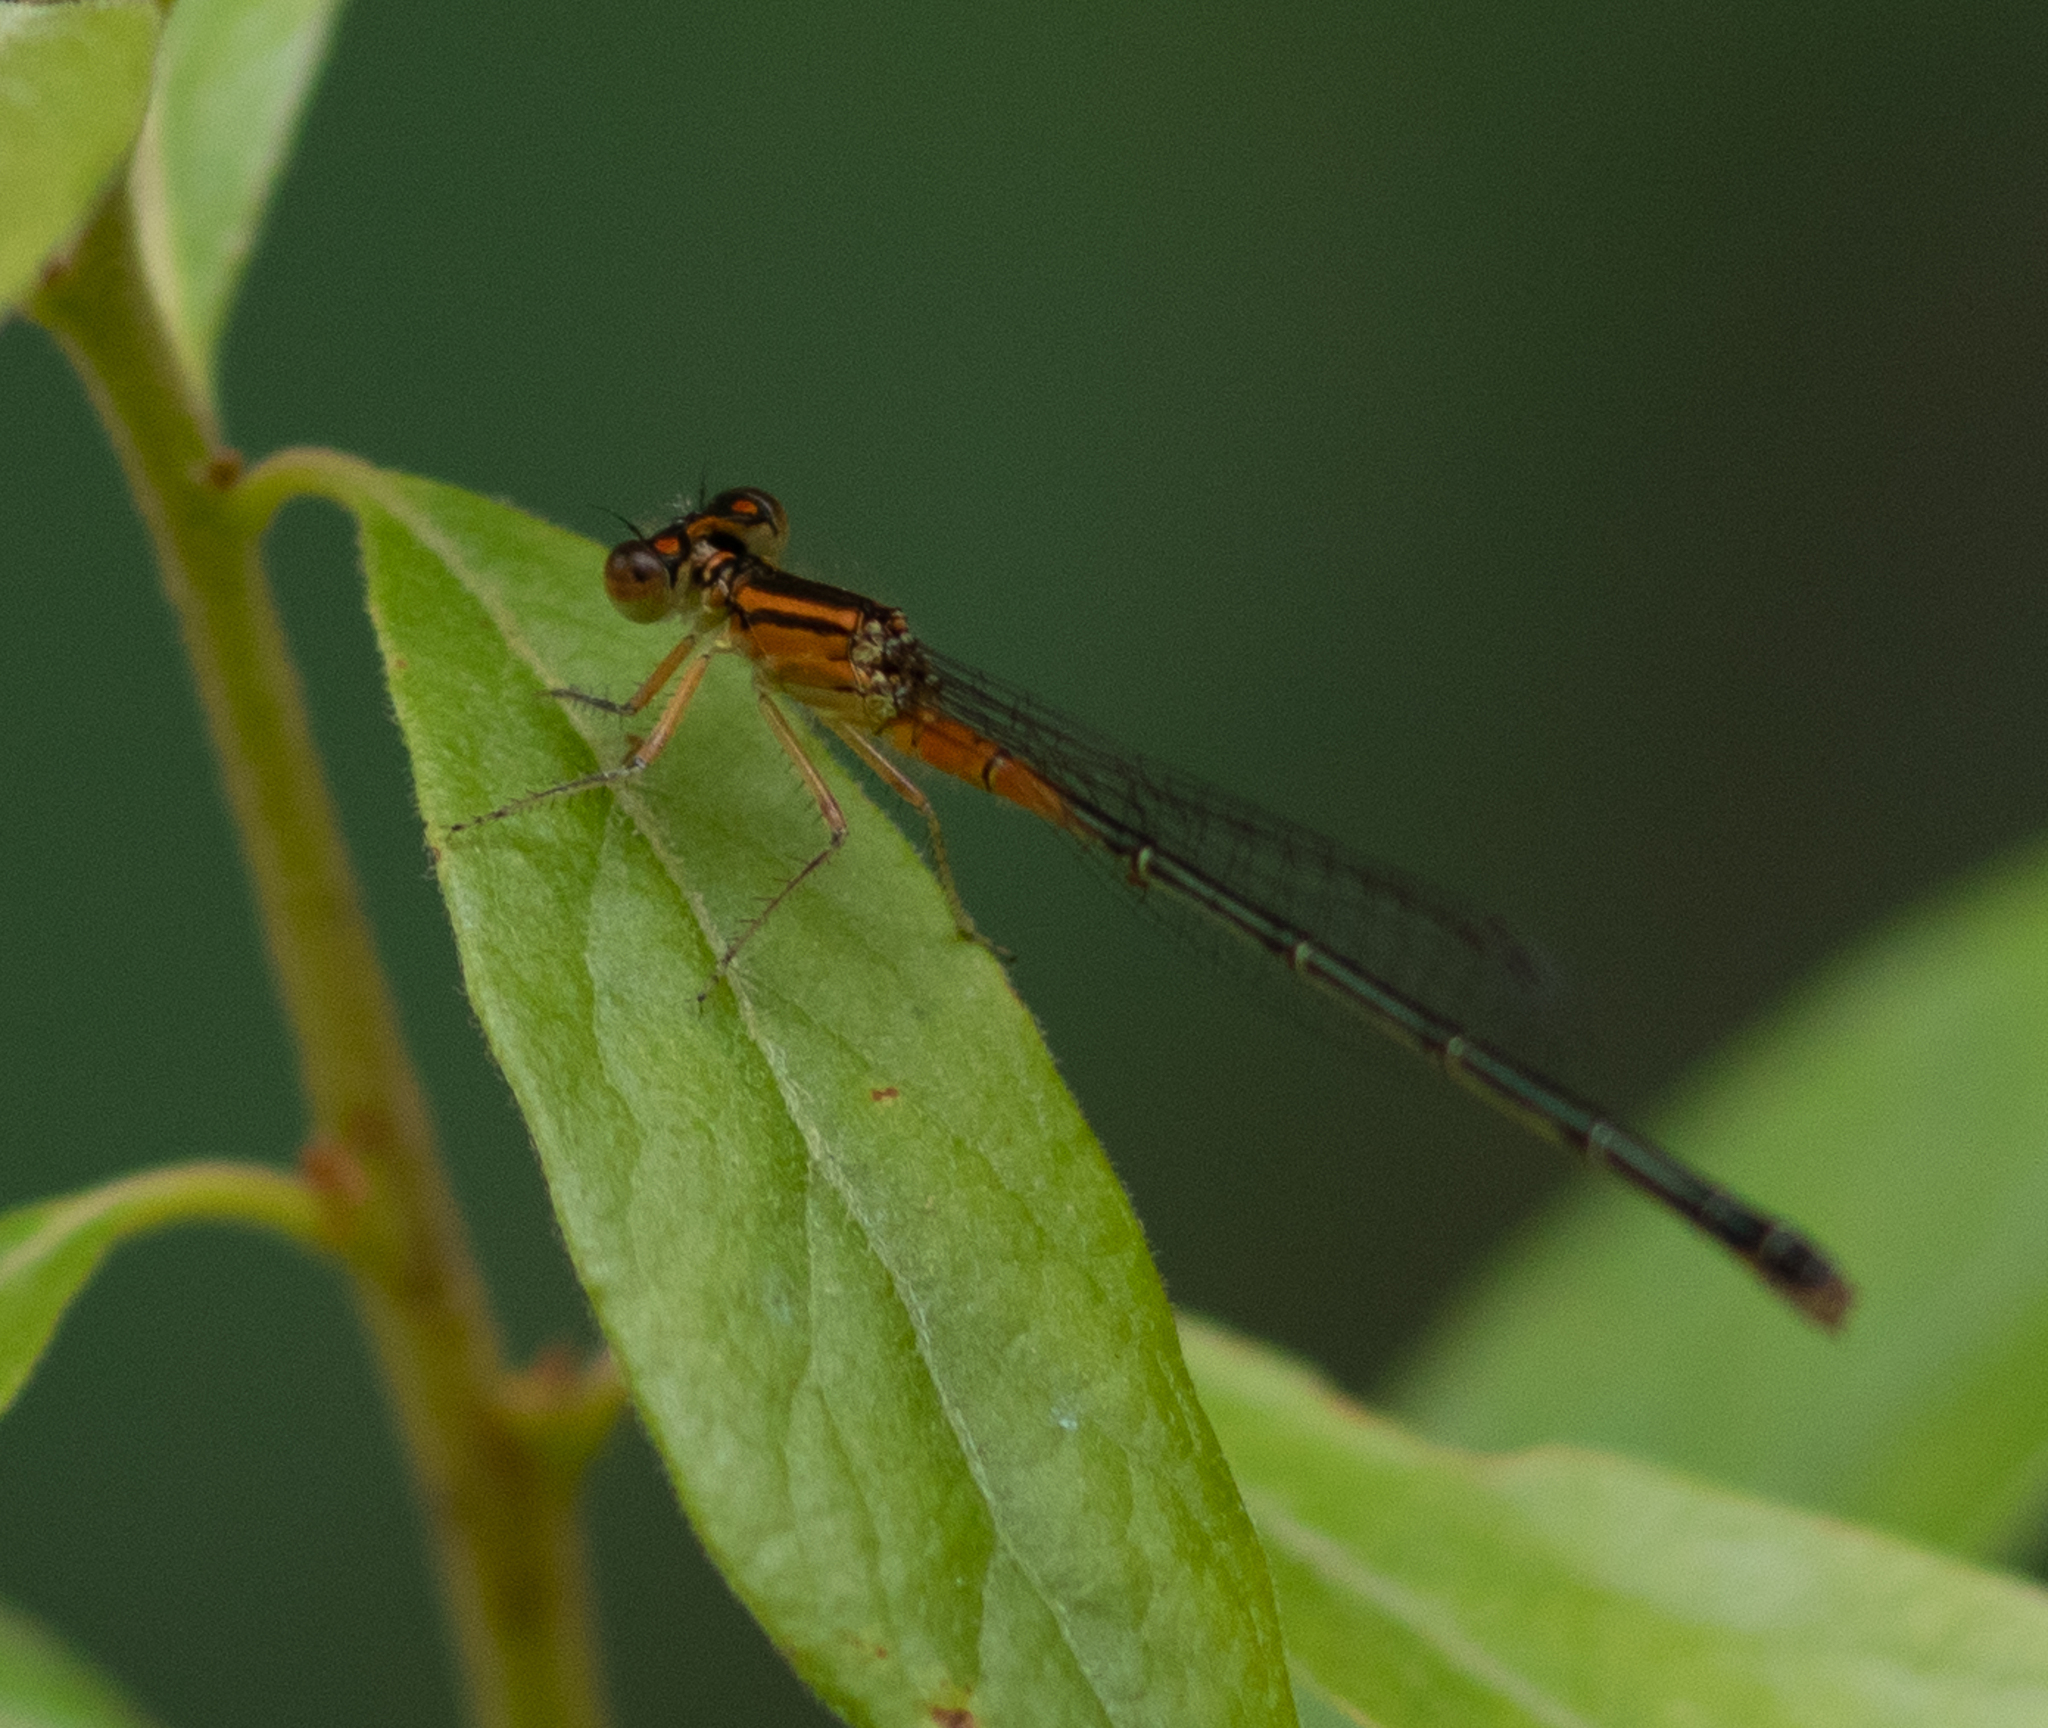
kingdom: Animalia
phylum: Arthropoda
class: Insecta
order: Odonata
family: Coenagrionidae
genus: Ischnura
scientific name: Ischnura verticalis
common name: Eastern forktail
